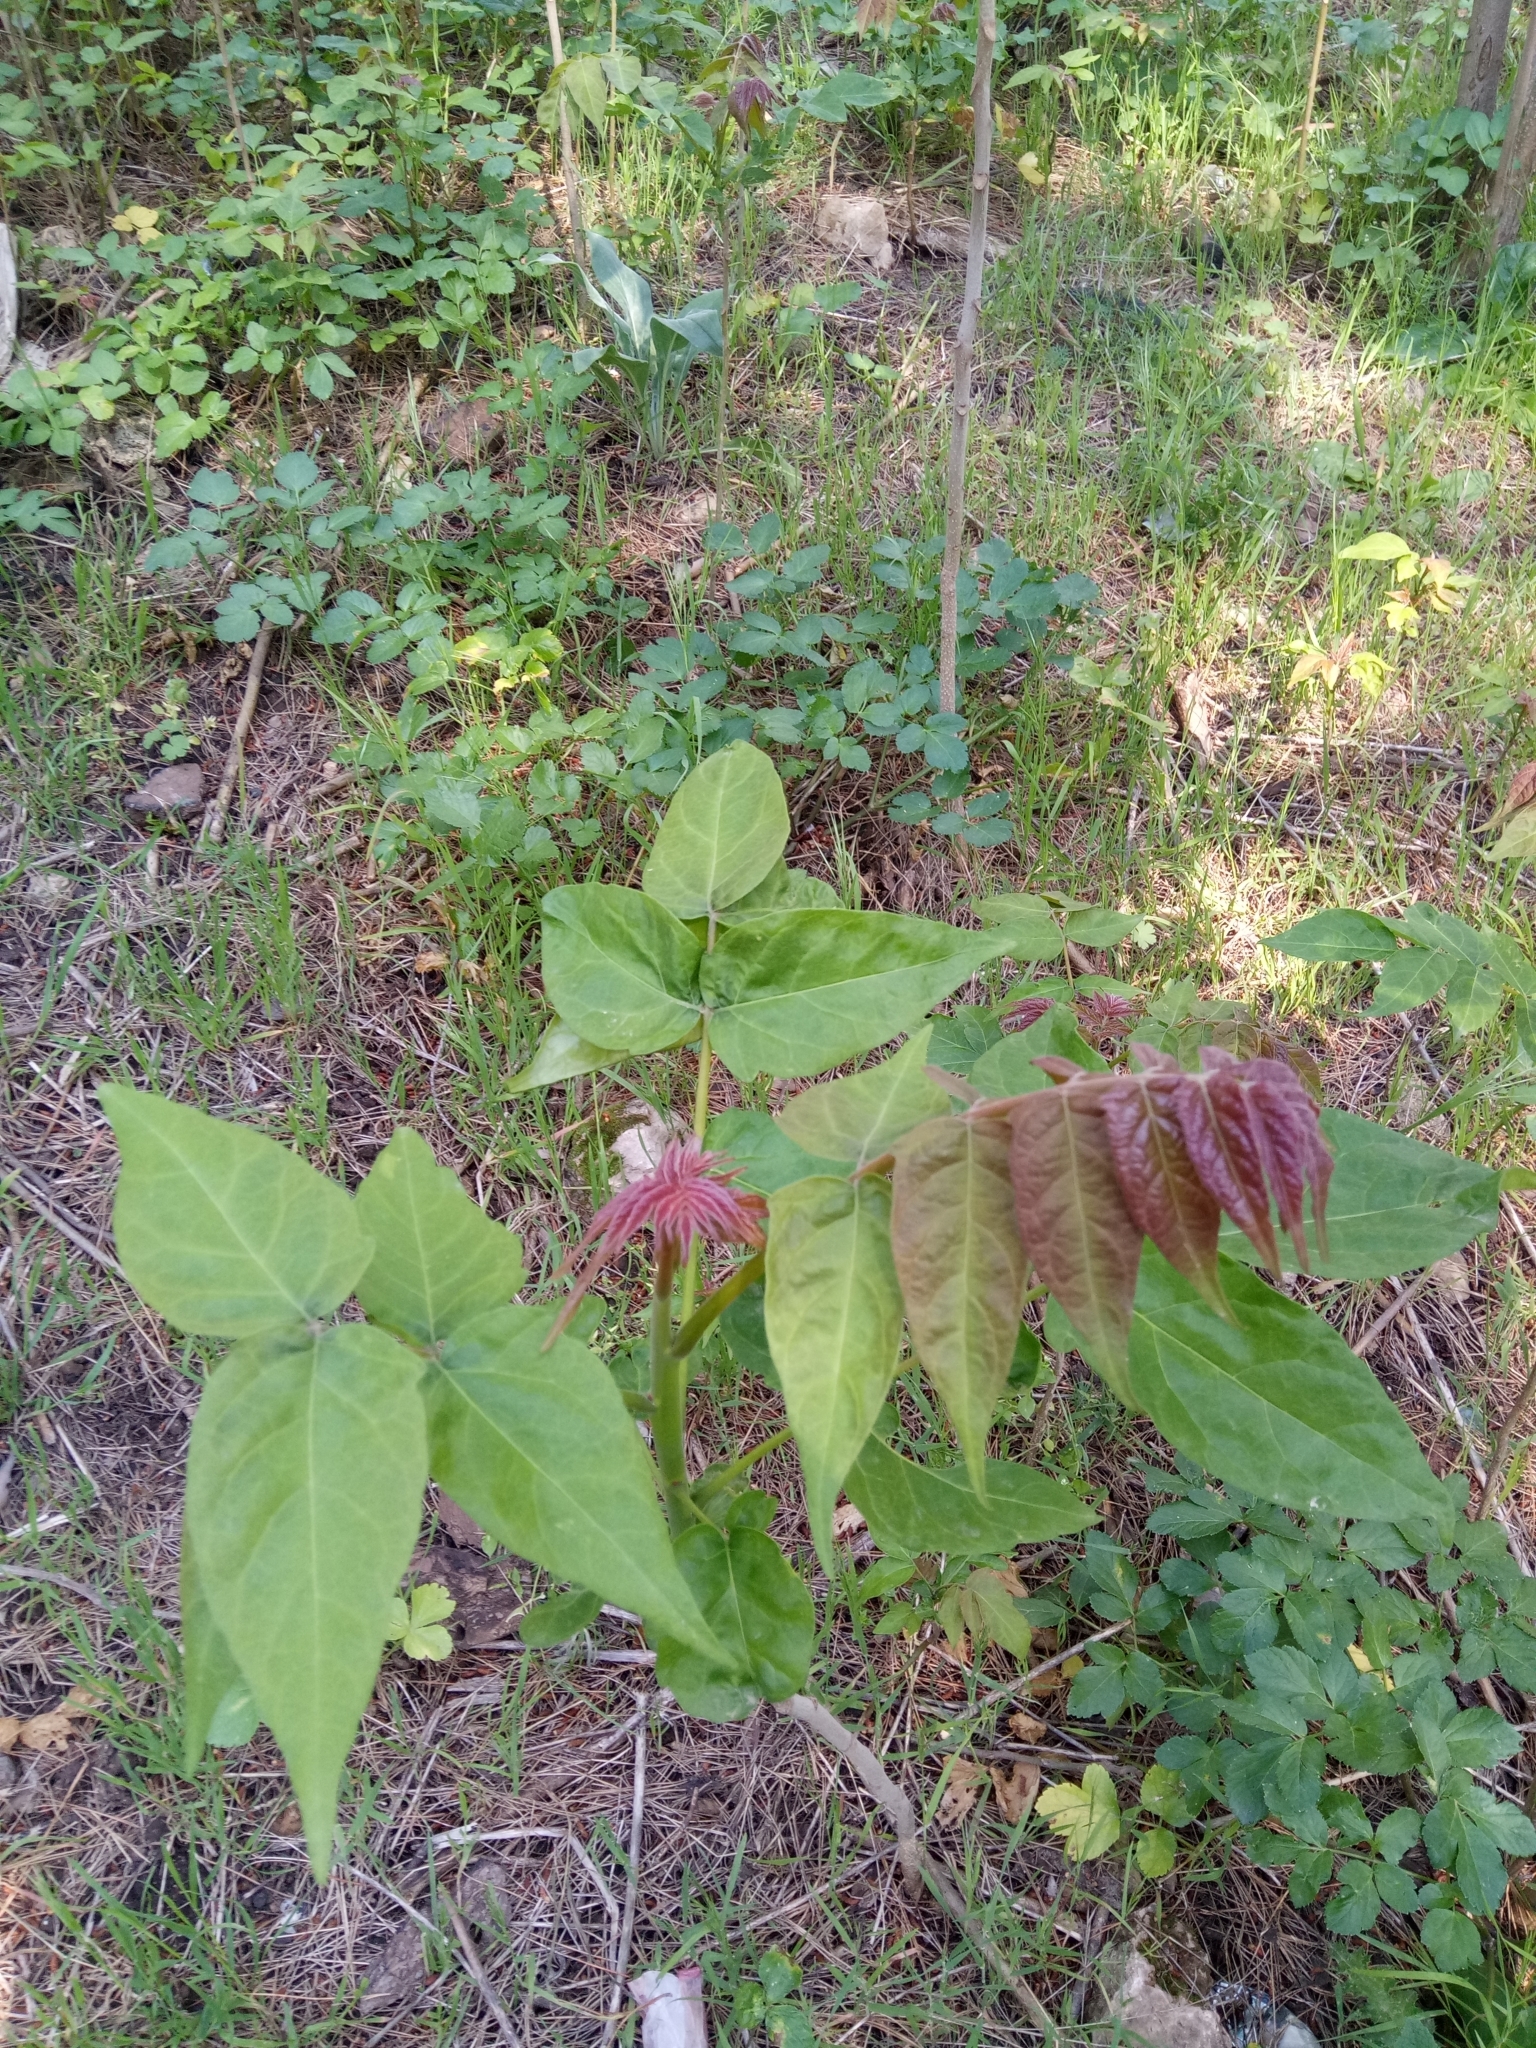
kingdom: Plantae
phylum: Tracheophyta
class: Magnoliopsida
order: Sapindales
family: Simaroubaceae
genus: Ailanthus
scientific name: Ailanthus altissima
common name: Tree-of-heaven
